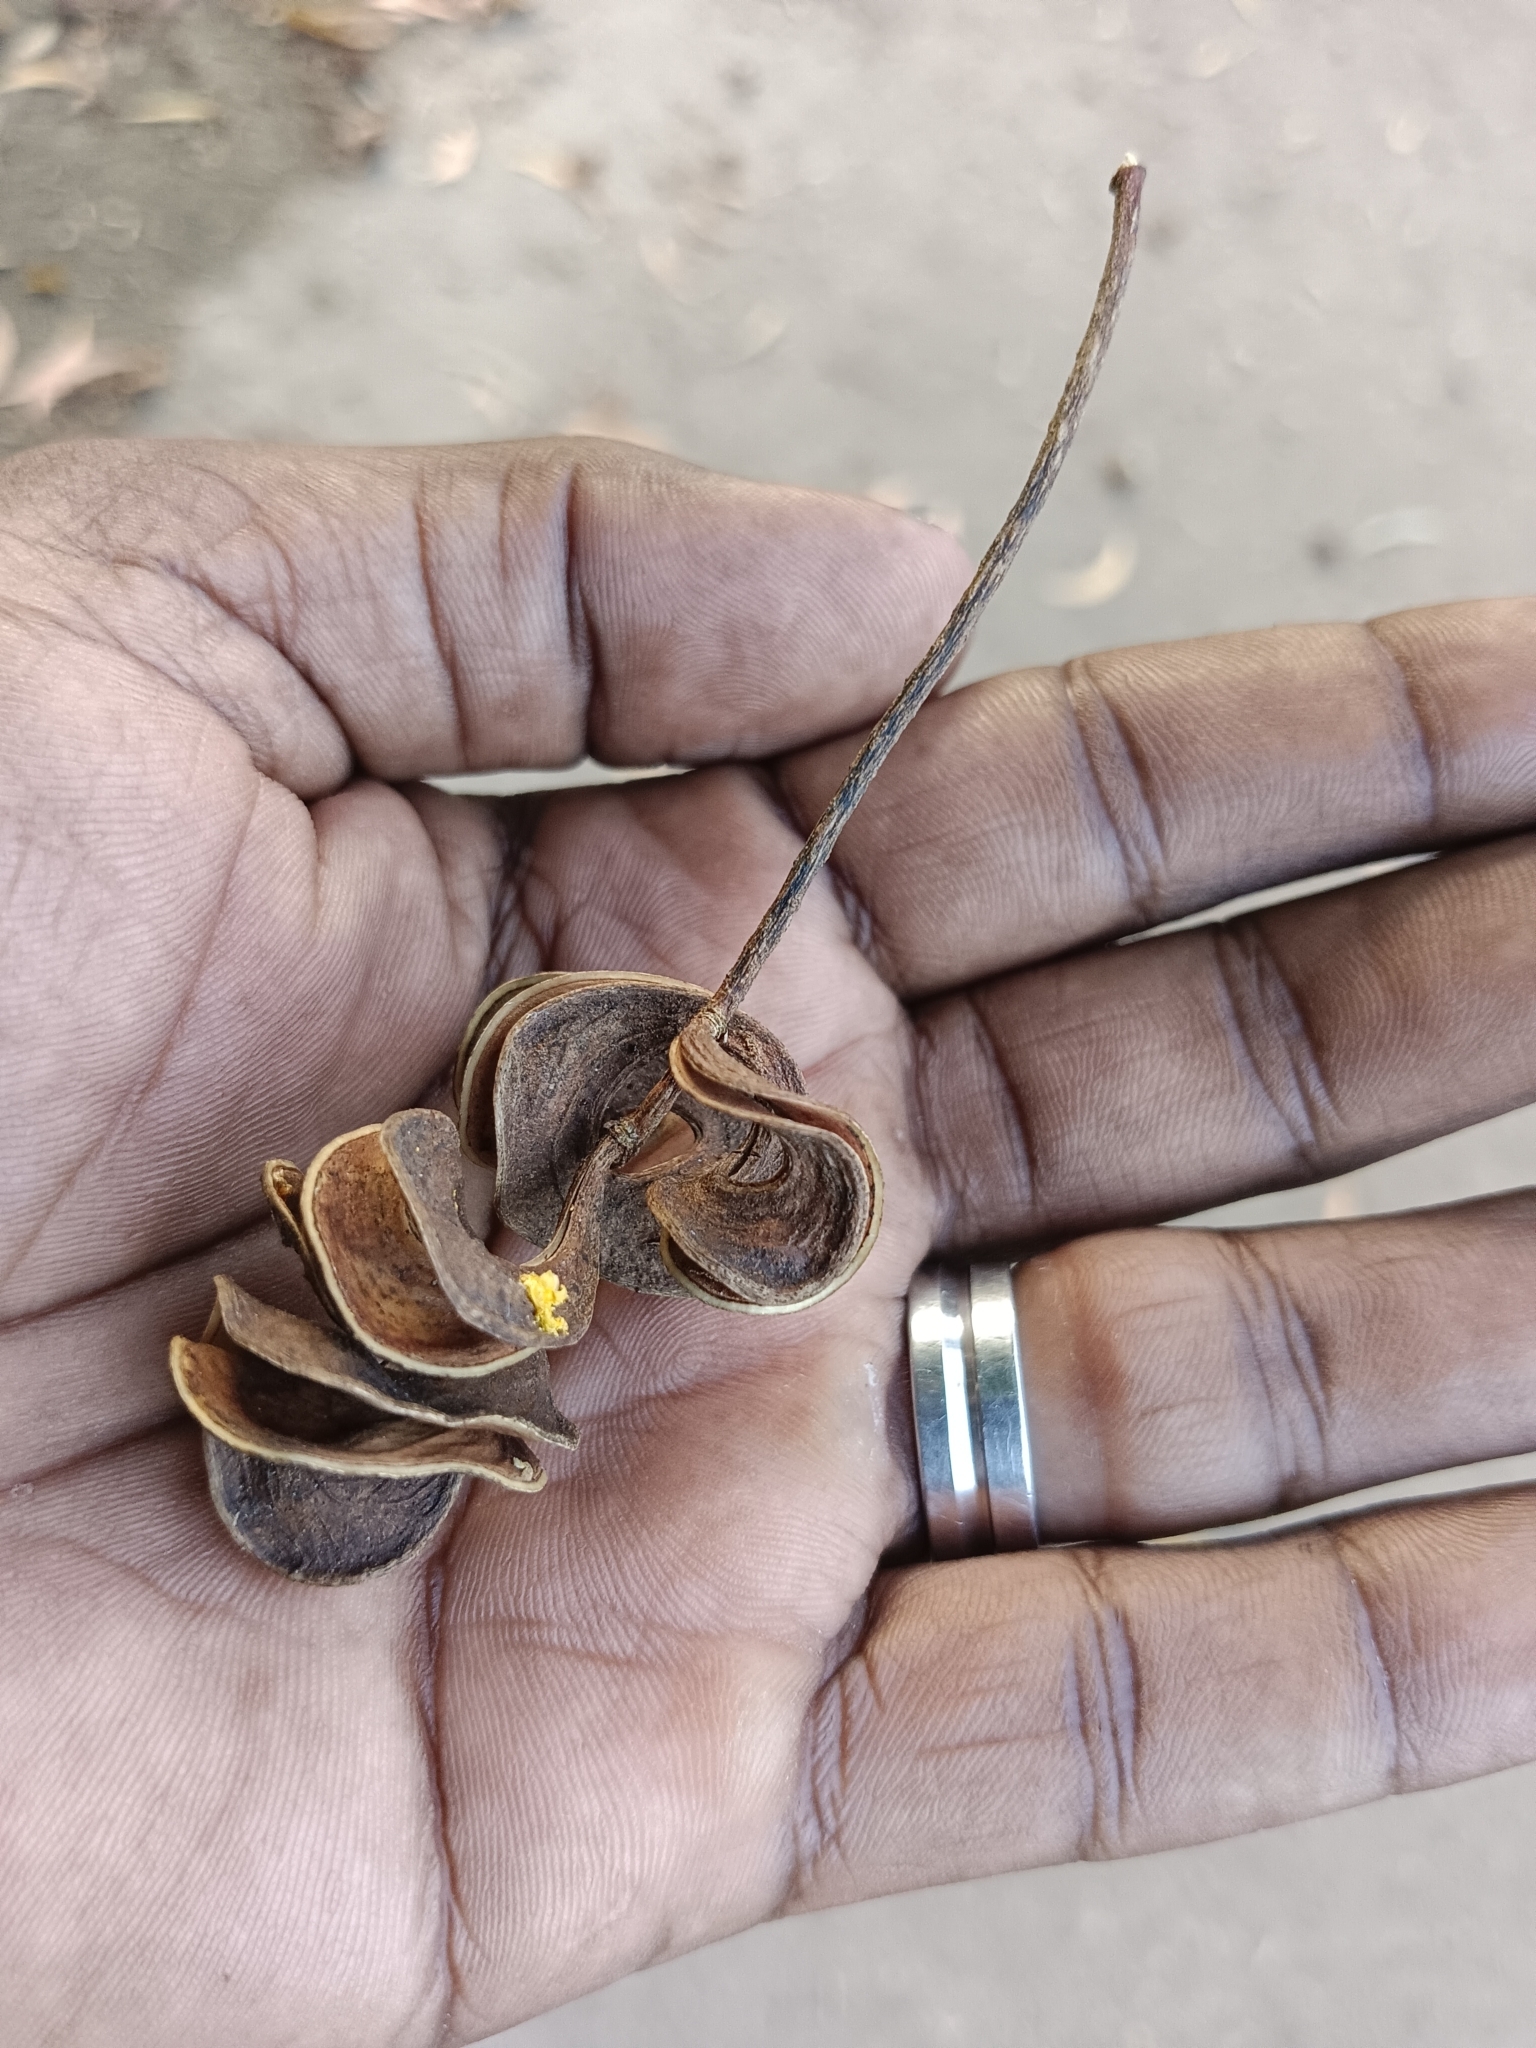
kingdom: Plantae
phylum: Tracheophyta
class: Magnoliopsida
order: Fabales
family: Fabaceae
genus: Acacia
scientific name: Acacia auriculiformis
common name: Earleaf acacia
